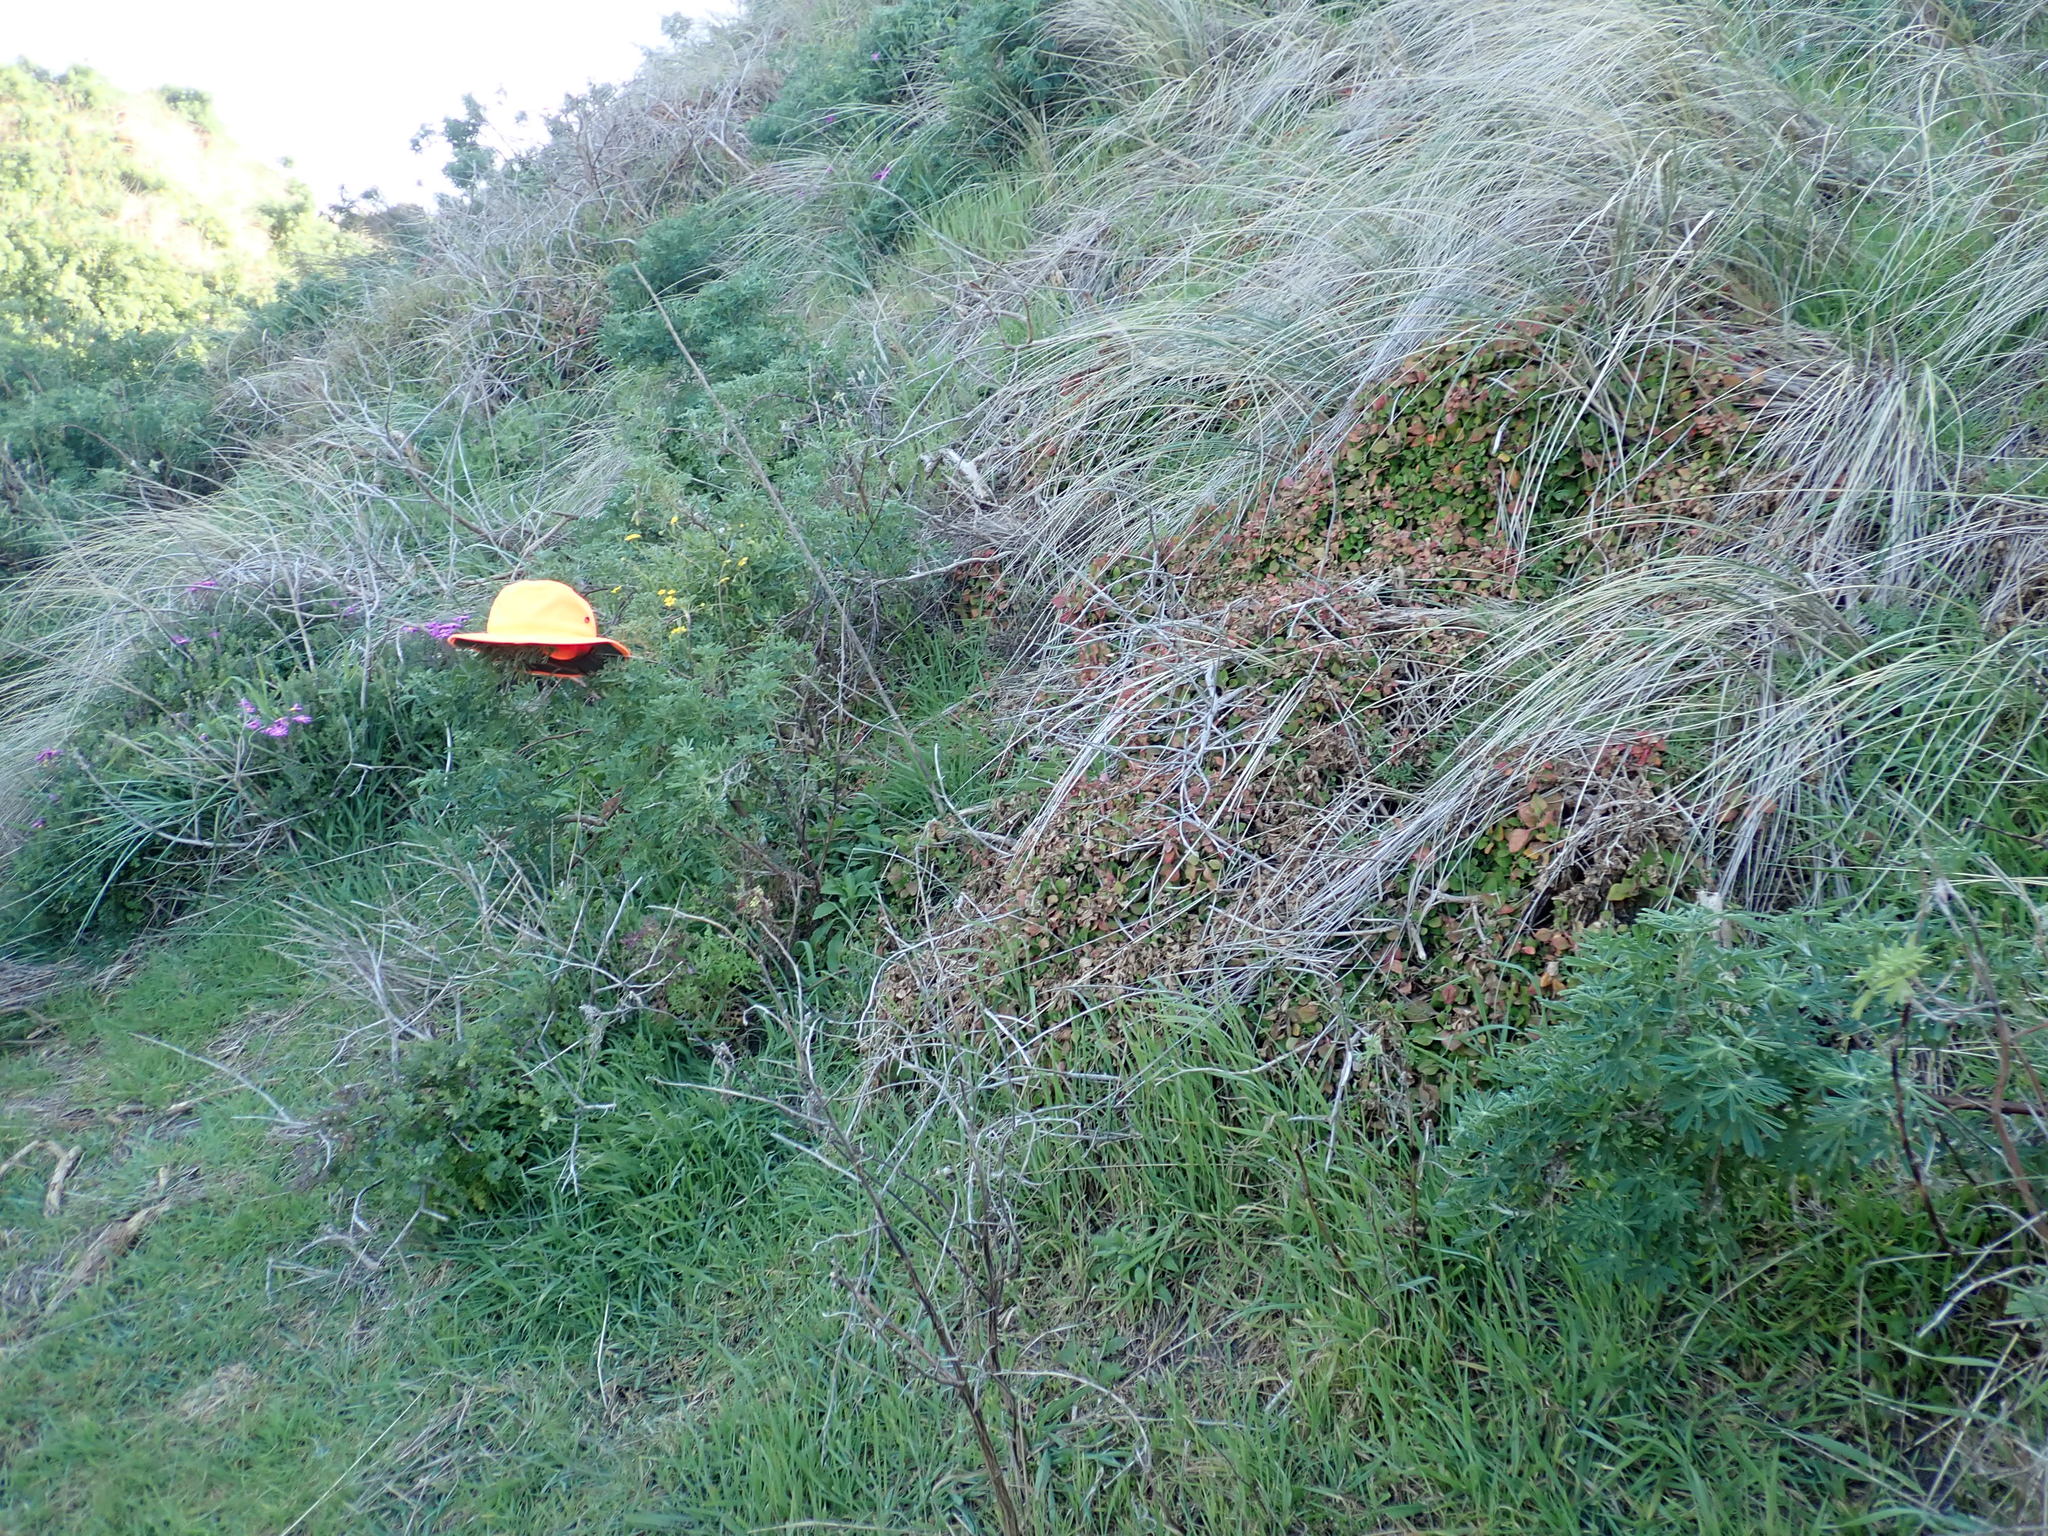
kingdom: Plantae
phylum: Tracheophyta
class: Magnoliopsida
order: Asterales
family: Asteraceae
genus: Senecio
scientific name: Senecio skirrhodon
